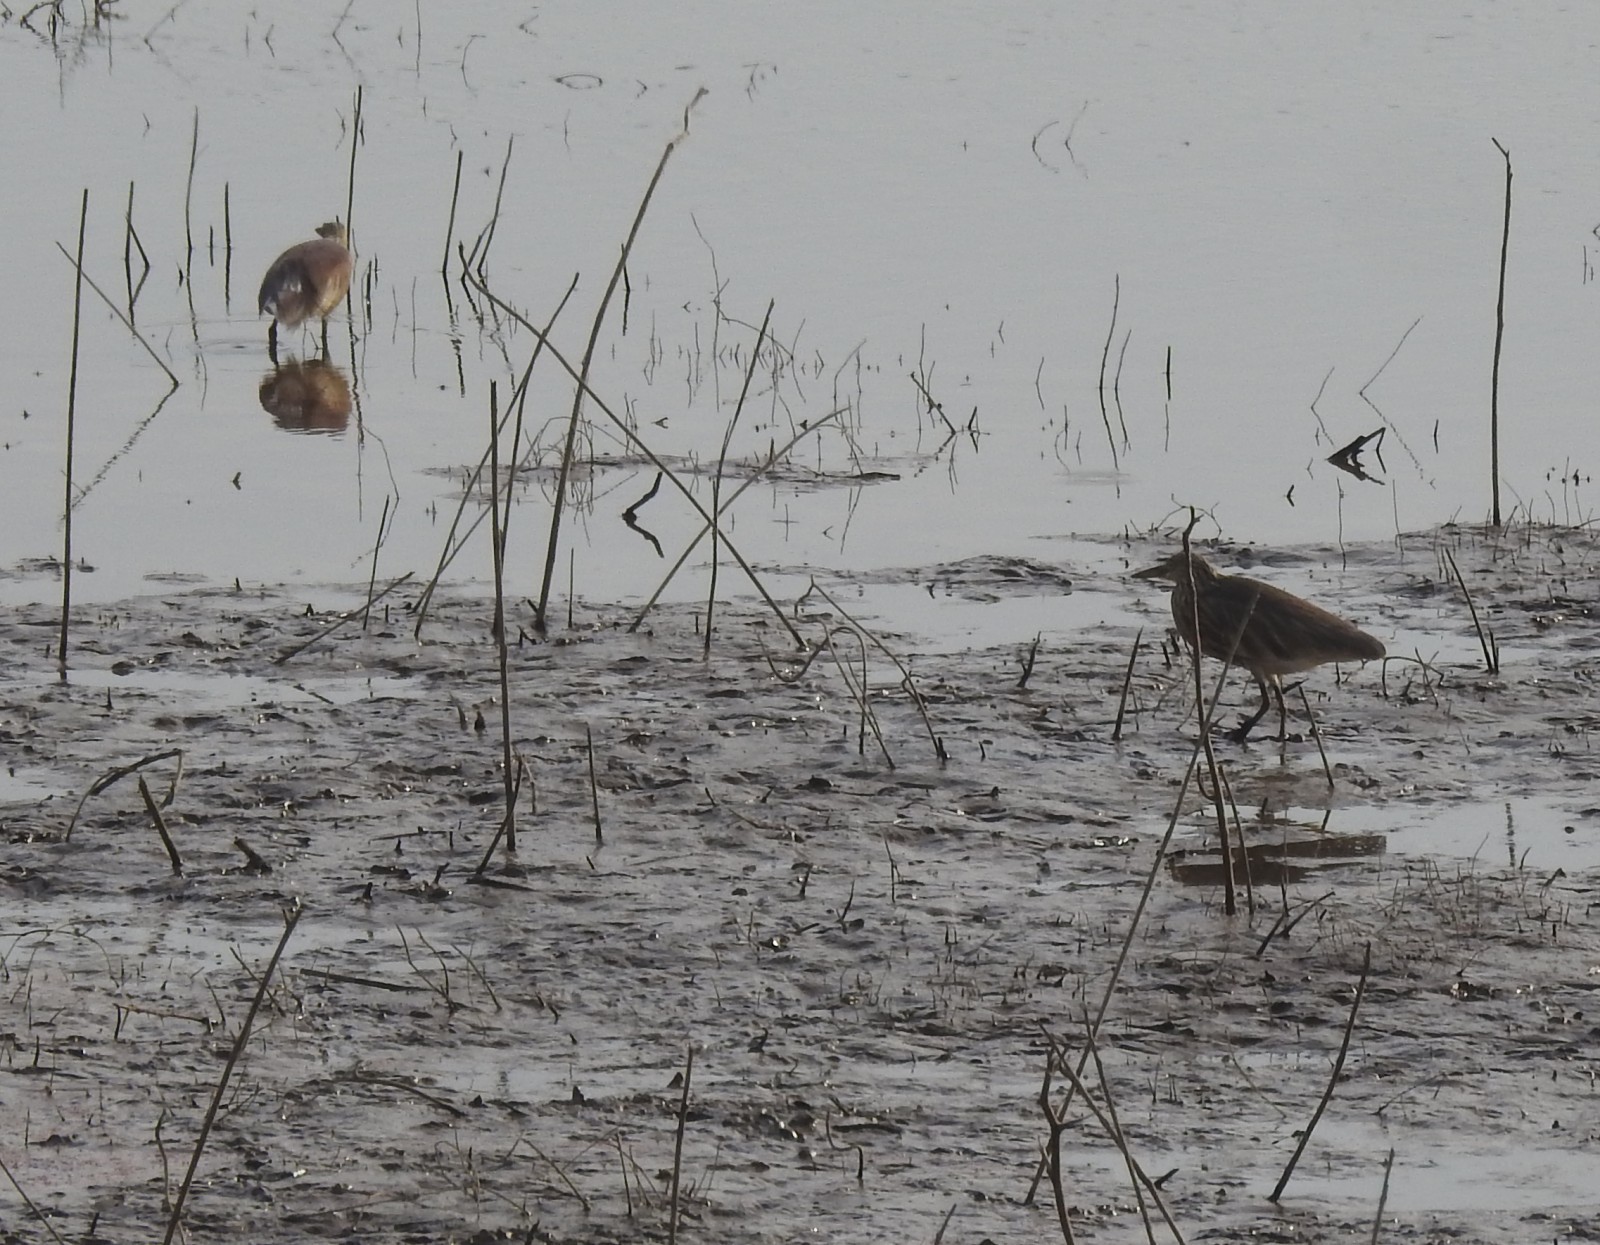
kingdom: Animalia
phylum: Chordata
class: Aves
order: Pelecaniformes
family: Ardeidae
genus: Ardeola
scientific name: Ardeola grayii
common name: Indian pond heron
